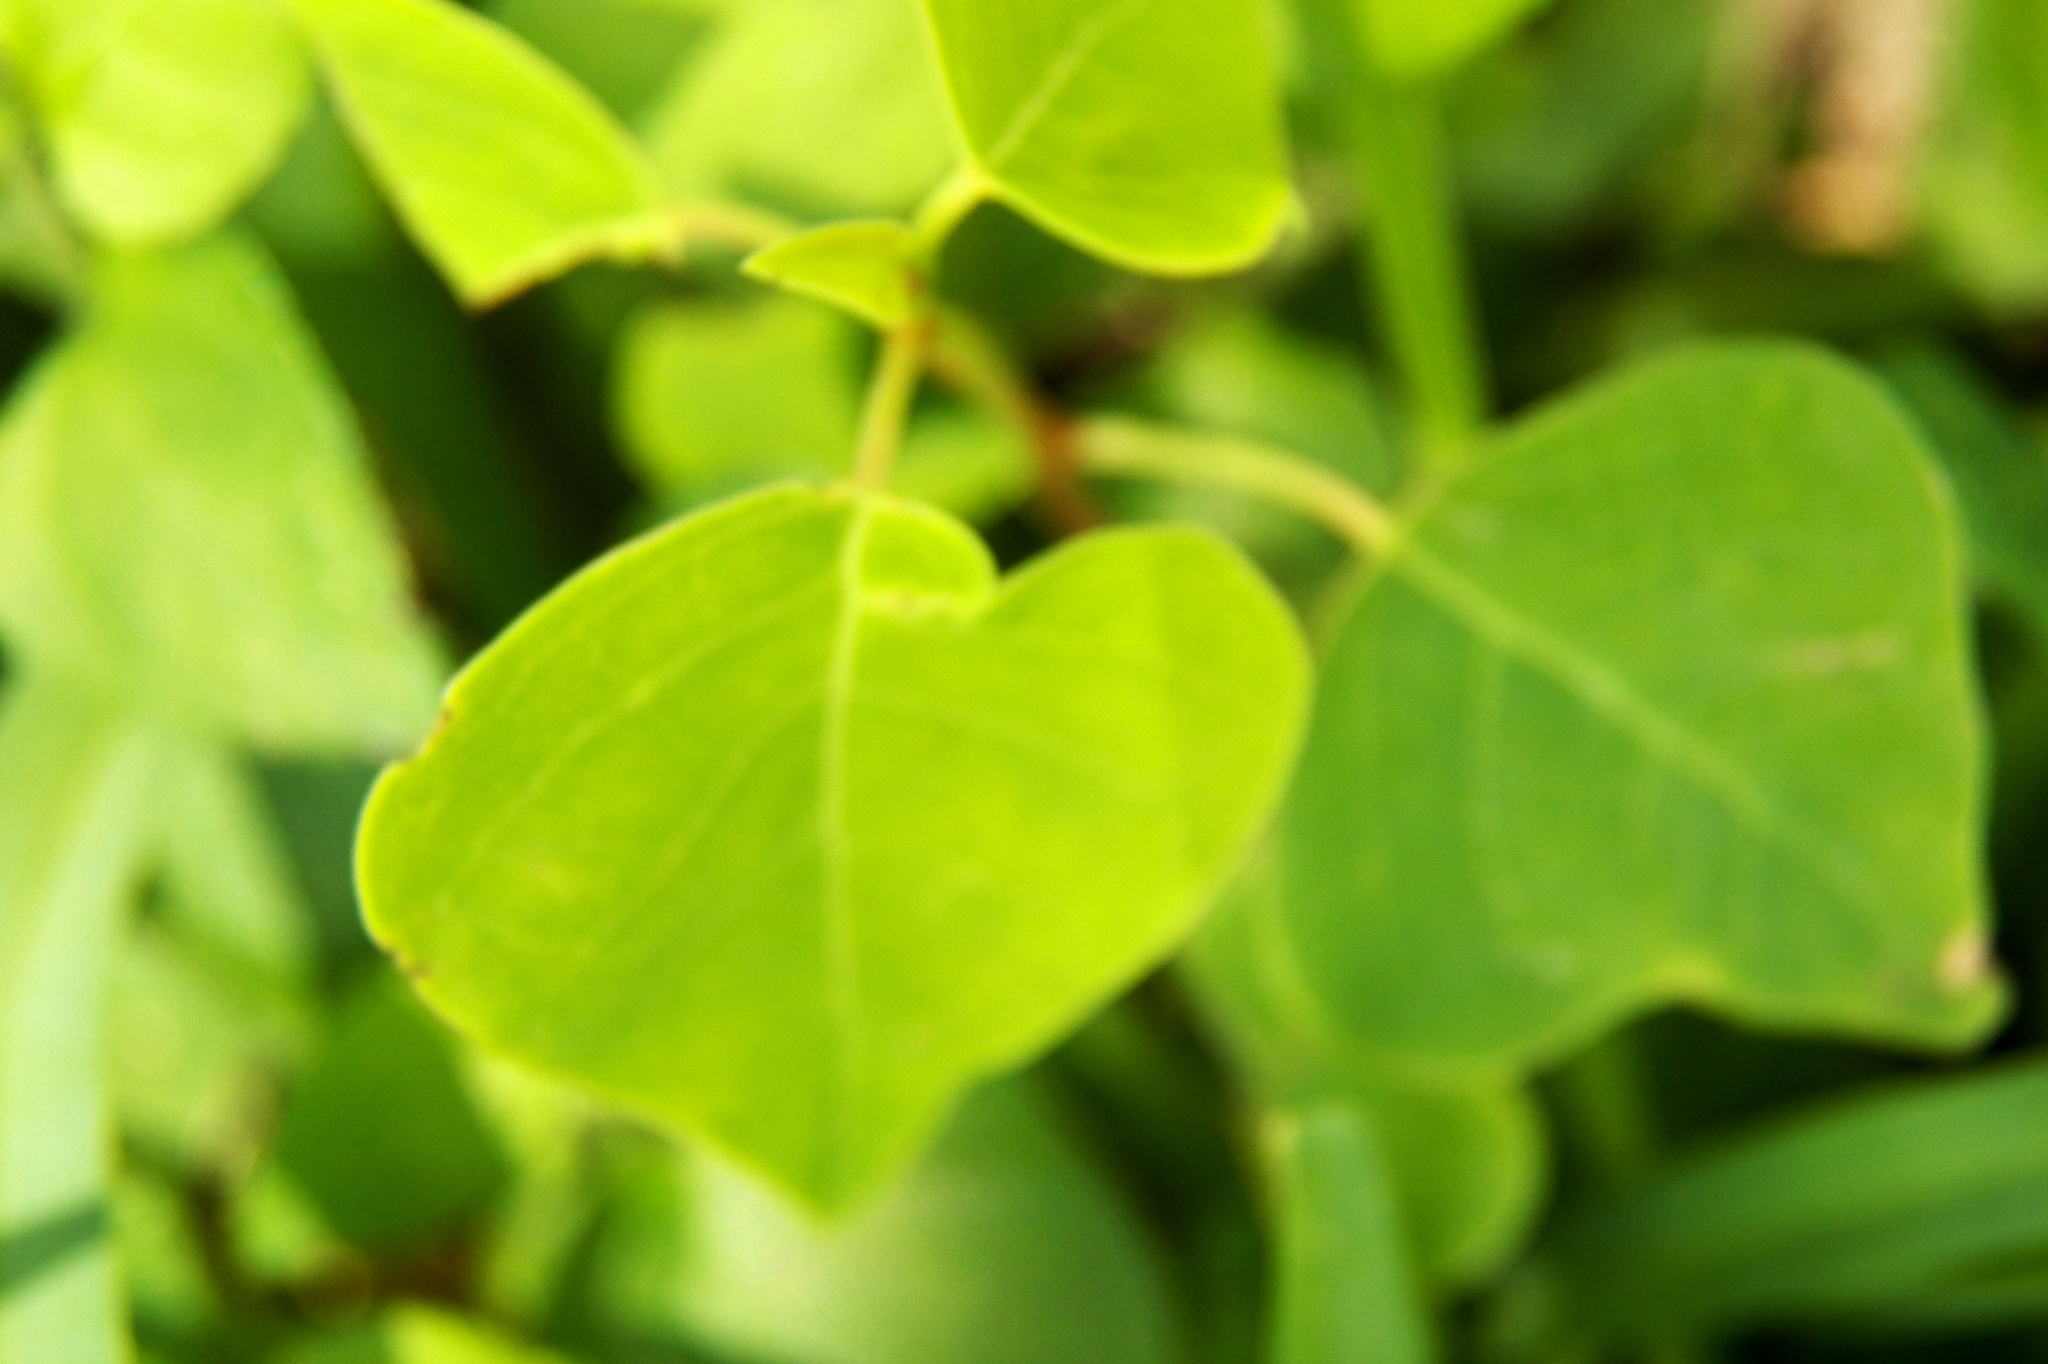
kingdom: Plantae
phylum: Tracheophyta
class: Magnoliopsida
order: Malpighiales
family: Euphorbiaceae
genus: Triadica
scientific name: Triadica sebifera
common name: Chinese tallow
